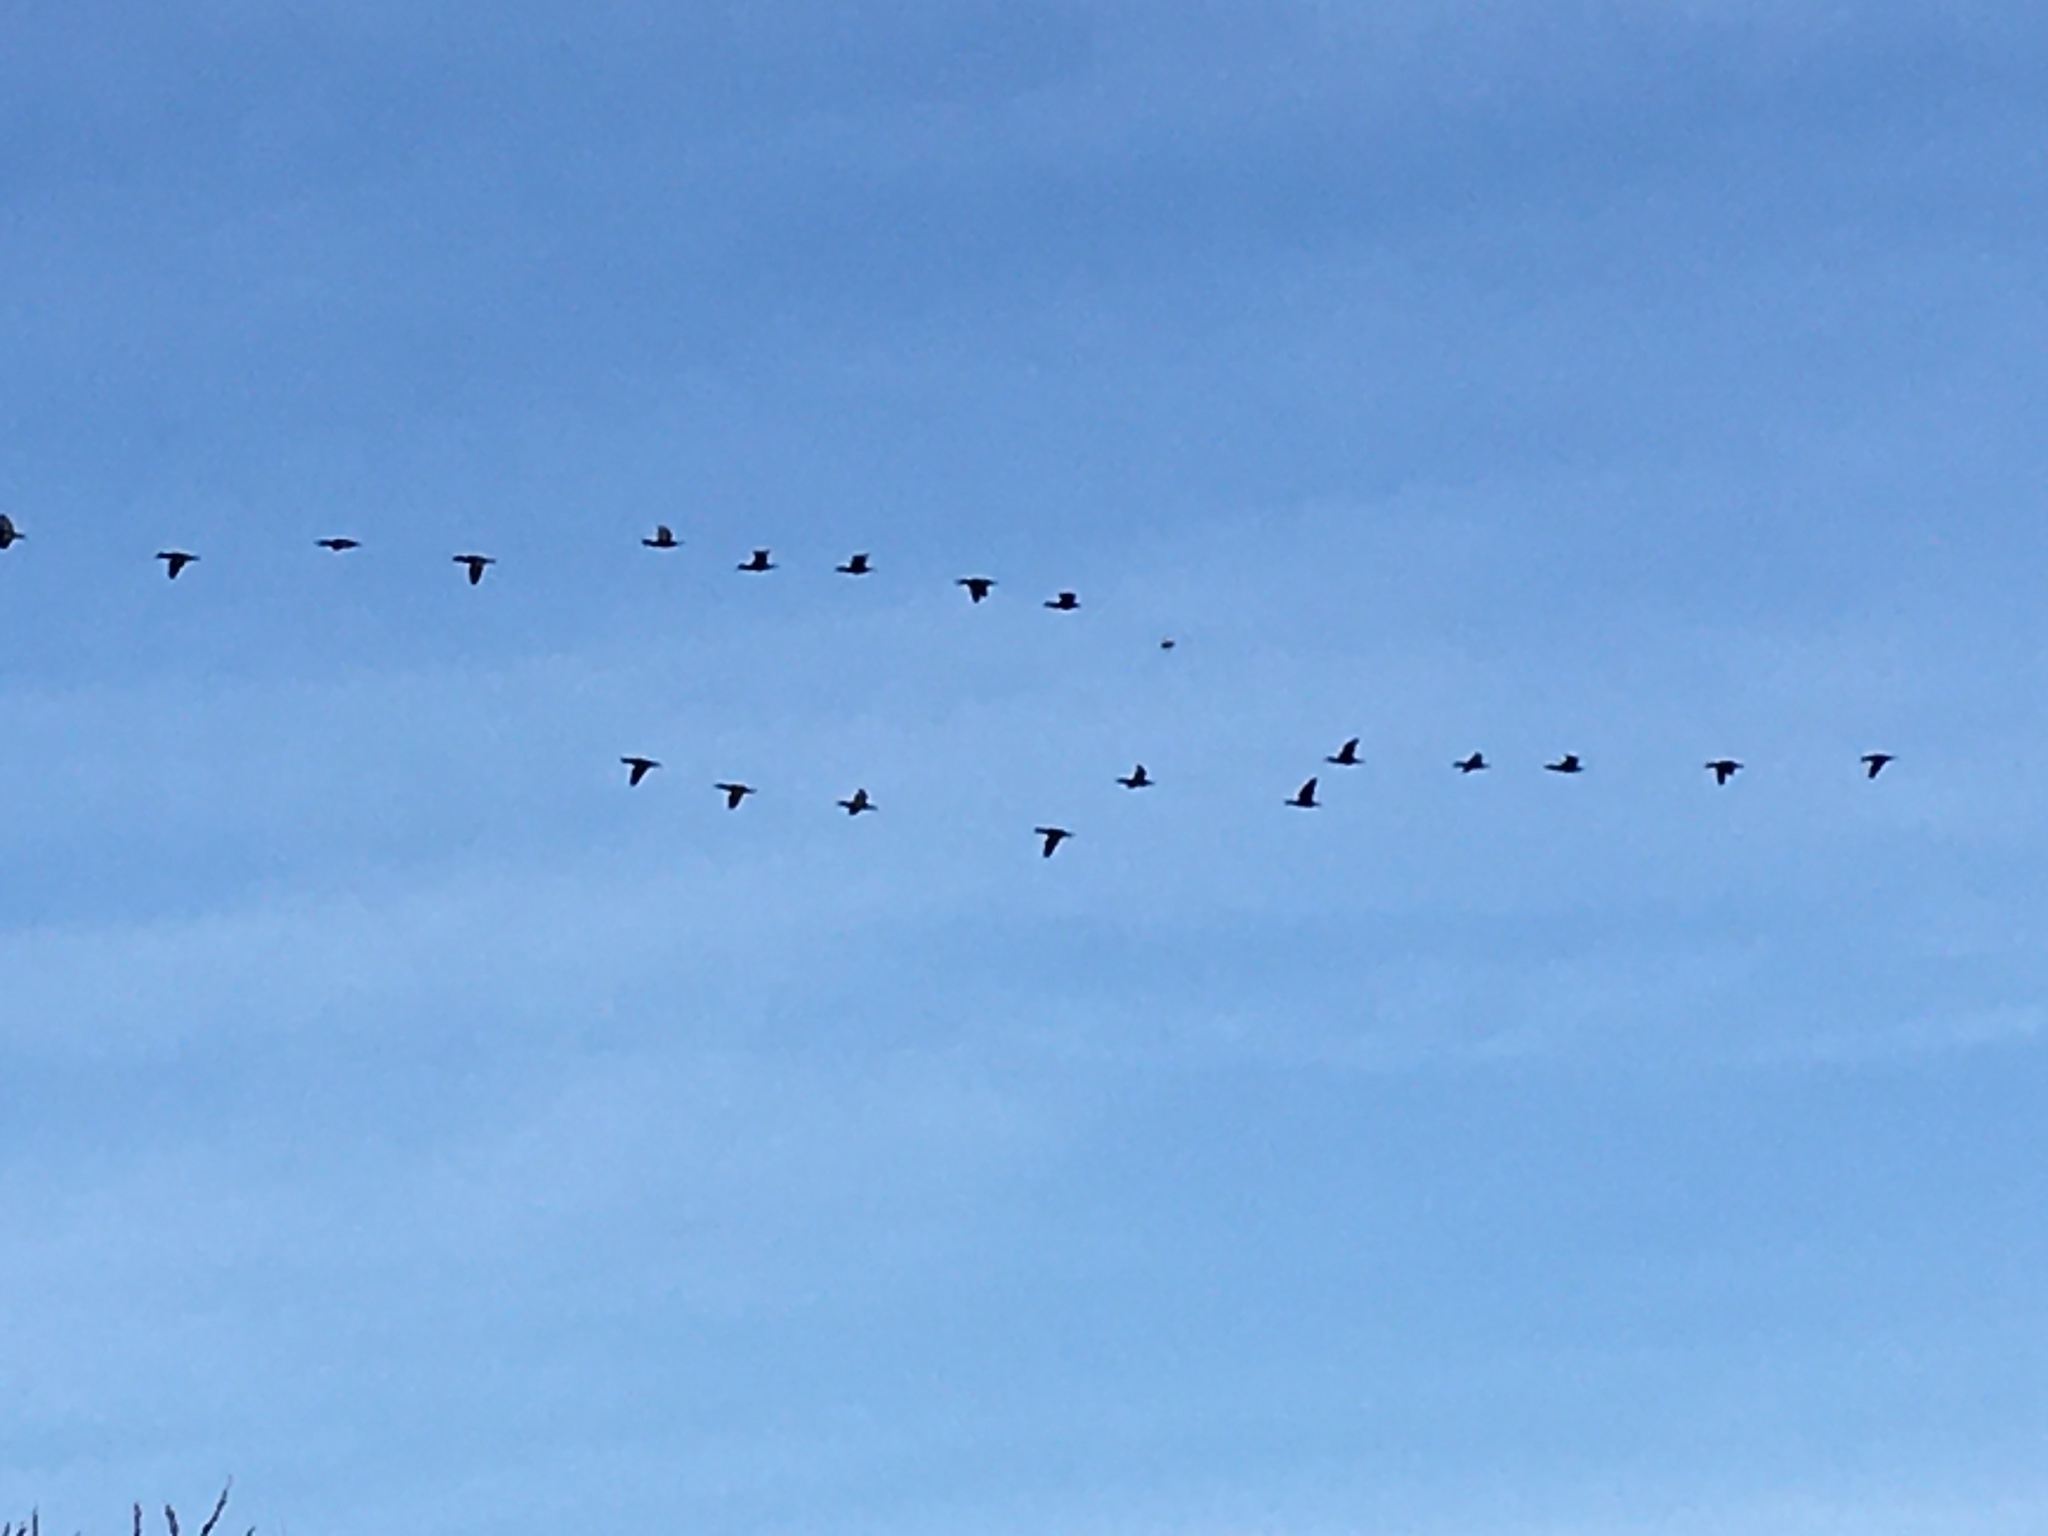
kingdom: Animalia
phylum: Chordata
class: Aves
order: Suliformes
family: Phalacrocoracidae
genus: Phalacrocorax
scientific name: Phalacrocorax auritus
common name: Double-crested cormorant
